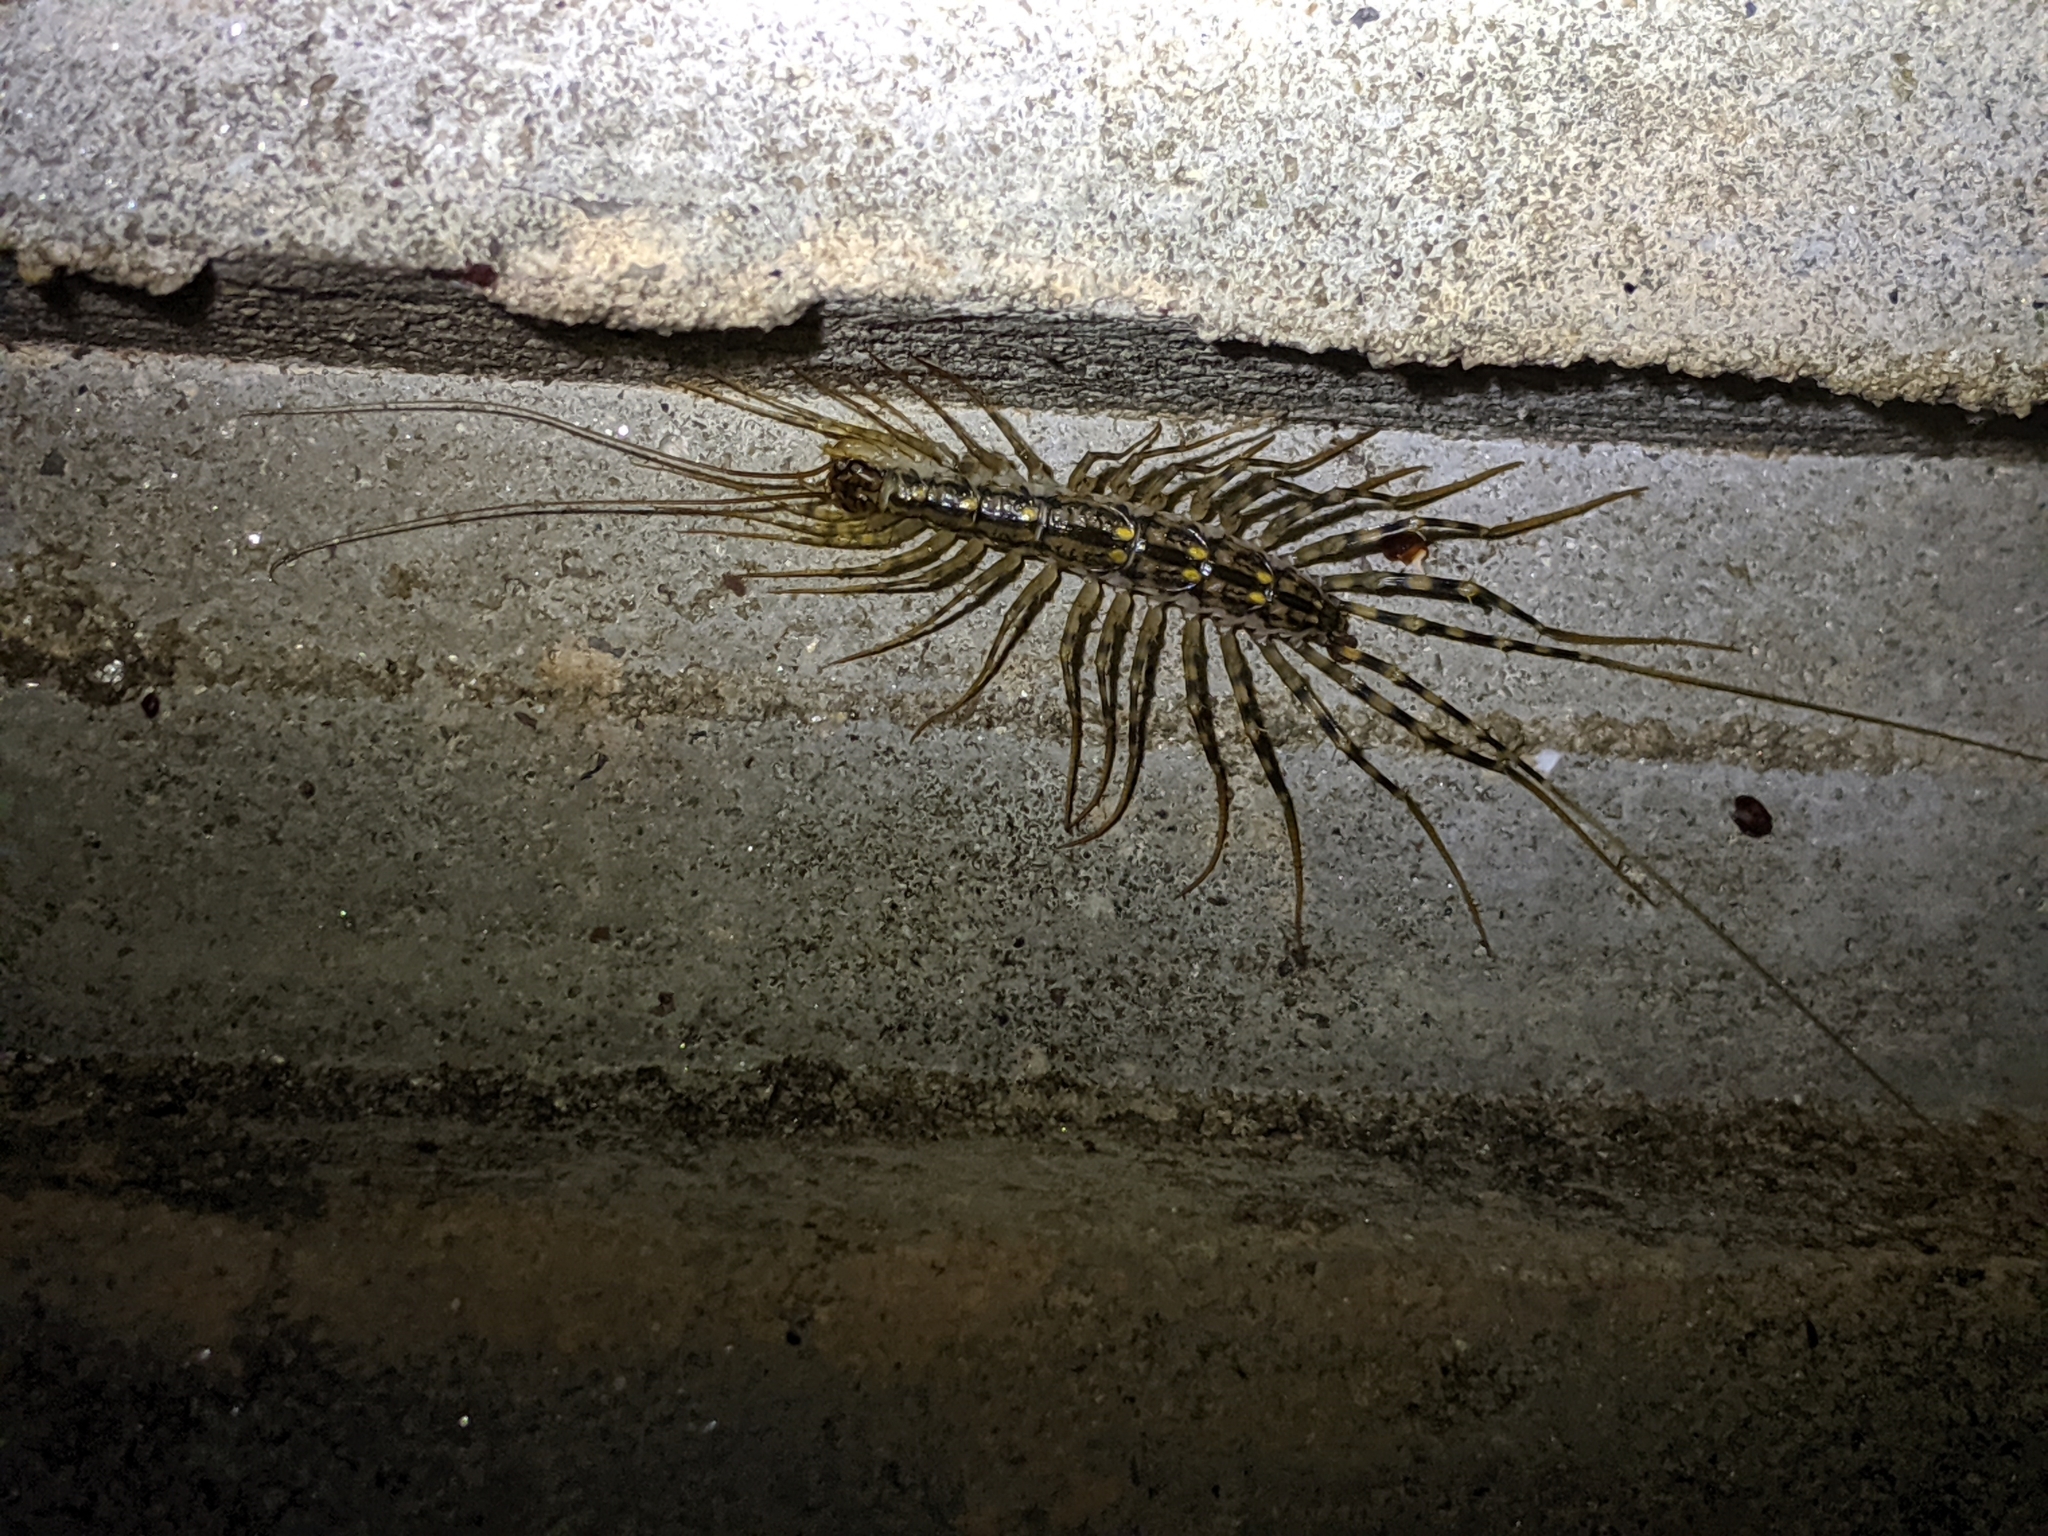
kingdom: Animalia
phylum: Arthropoda
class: Chilopoda
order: Scutigeromorpha
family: Scutigeridae
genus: Scutigera
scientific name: Scutigera coleoptrata
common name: House centipede
